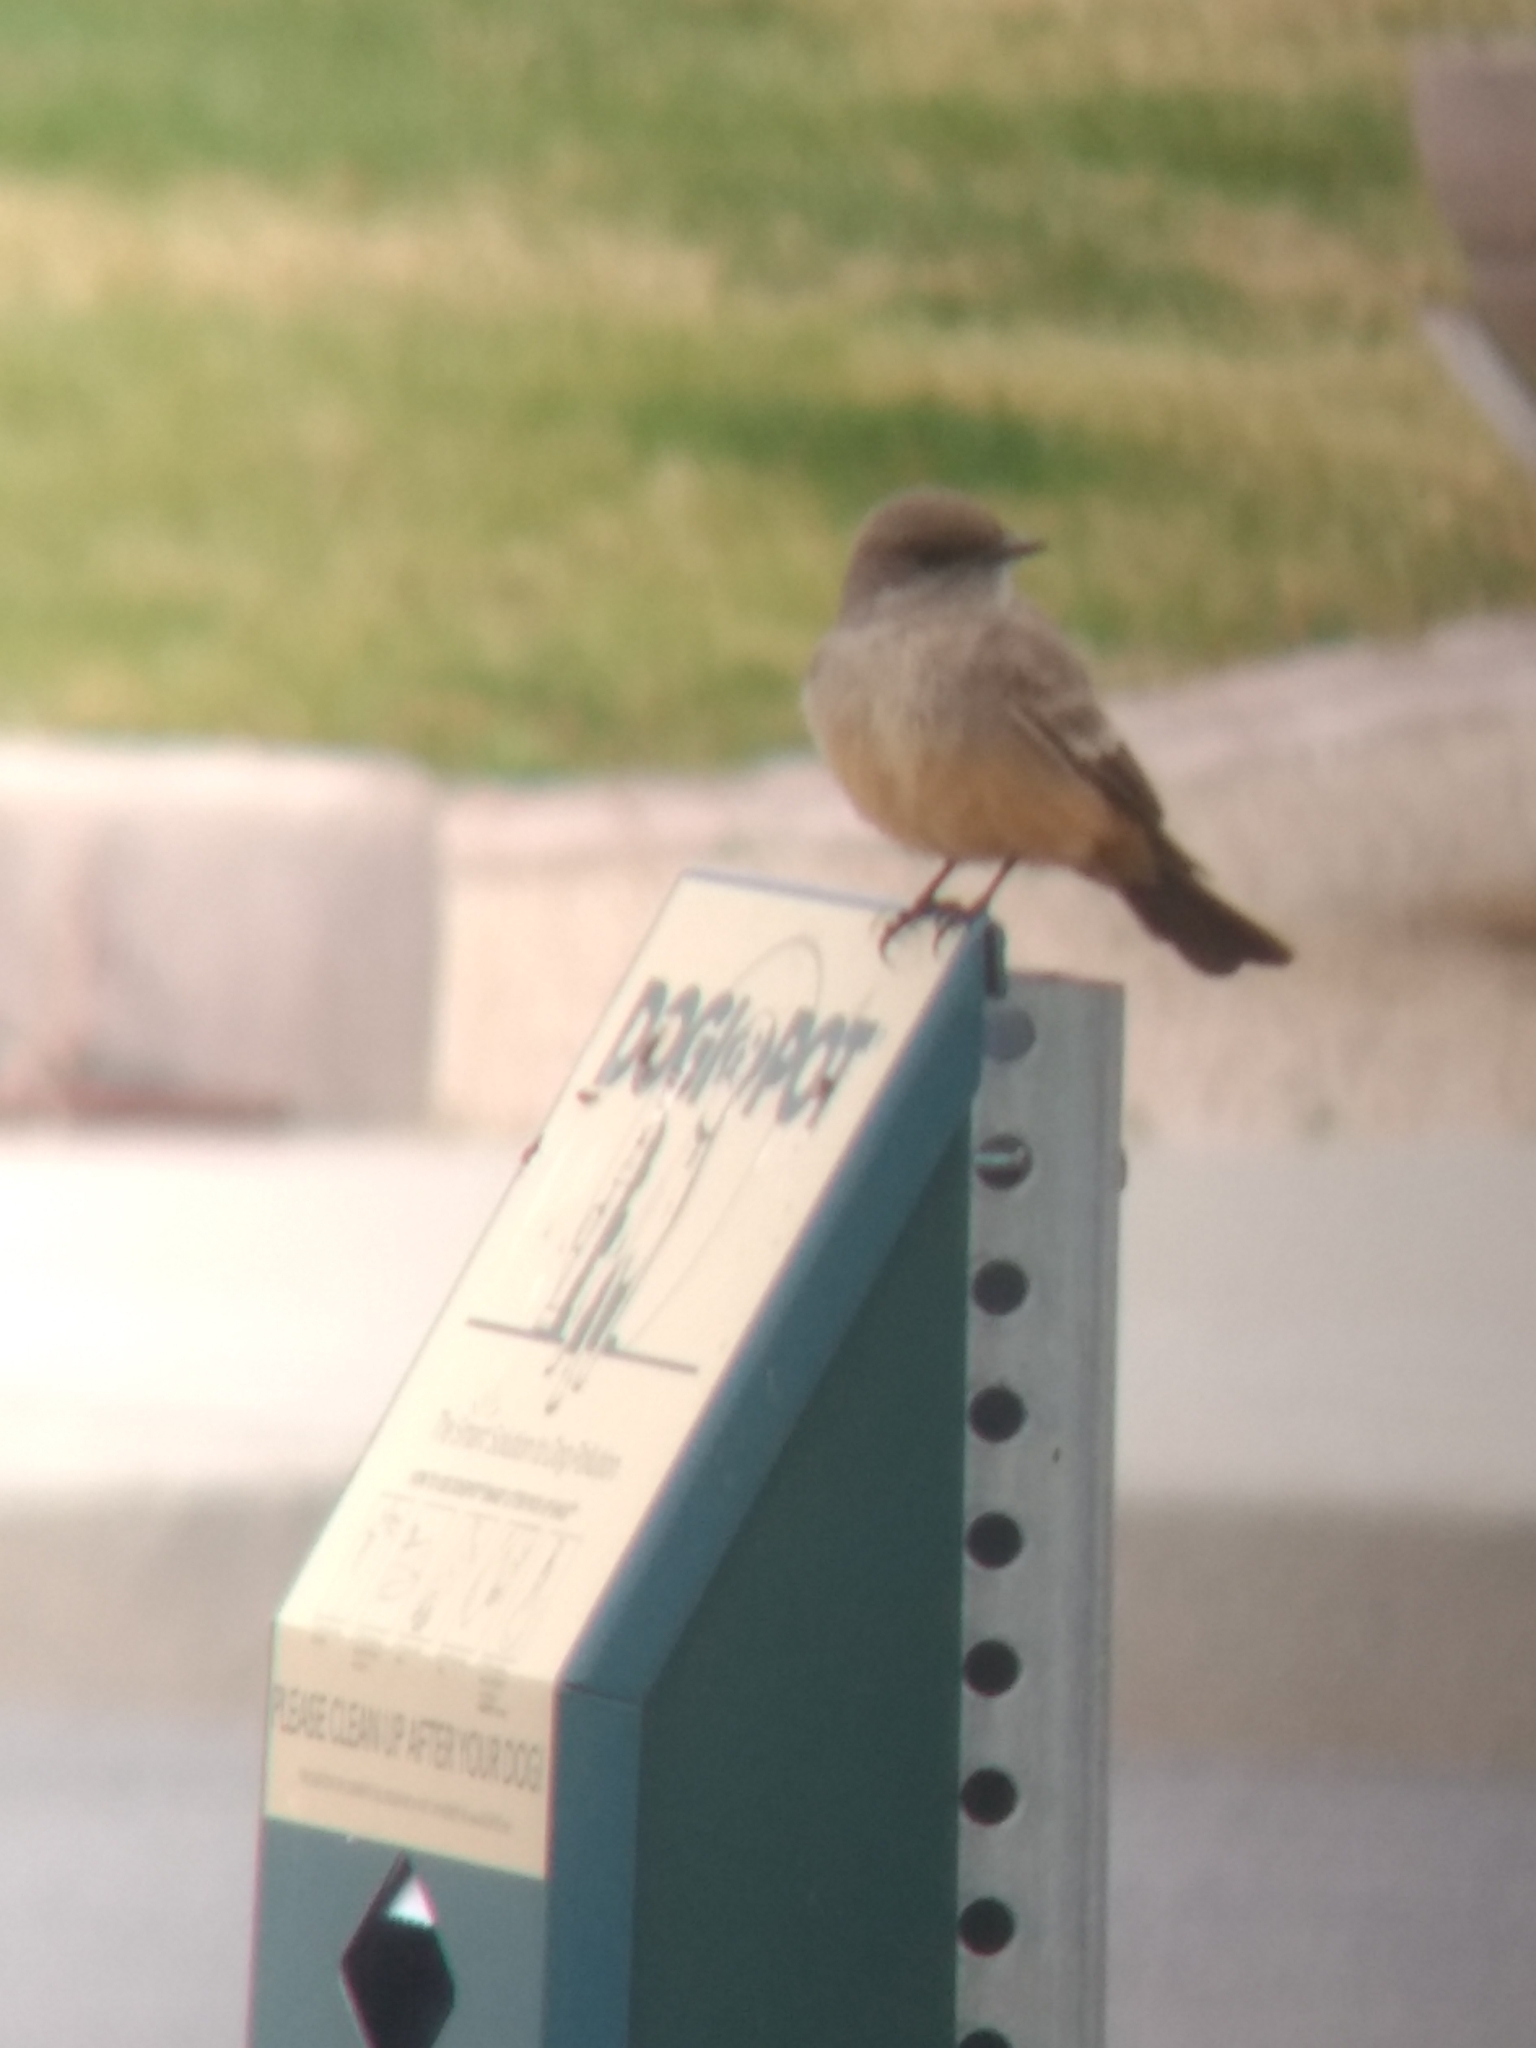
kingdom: Animalia
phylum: Chordata
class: Aves
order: Passeriformes
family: Tyrannidae
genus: Sayornis
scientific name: Sayornis saya
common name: Say's phoebe
